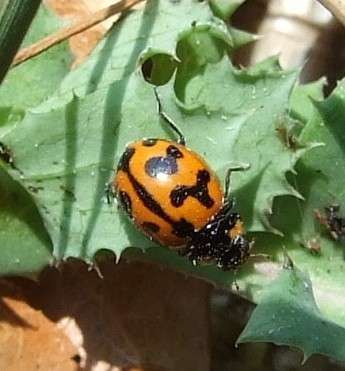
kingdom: Animalia
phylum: Arthropoda
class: Insecta
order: Coleoptera
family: Coccinellidae
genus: Coccinella
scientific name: Coccinella transversalis
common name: Transverse lady beetle
